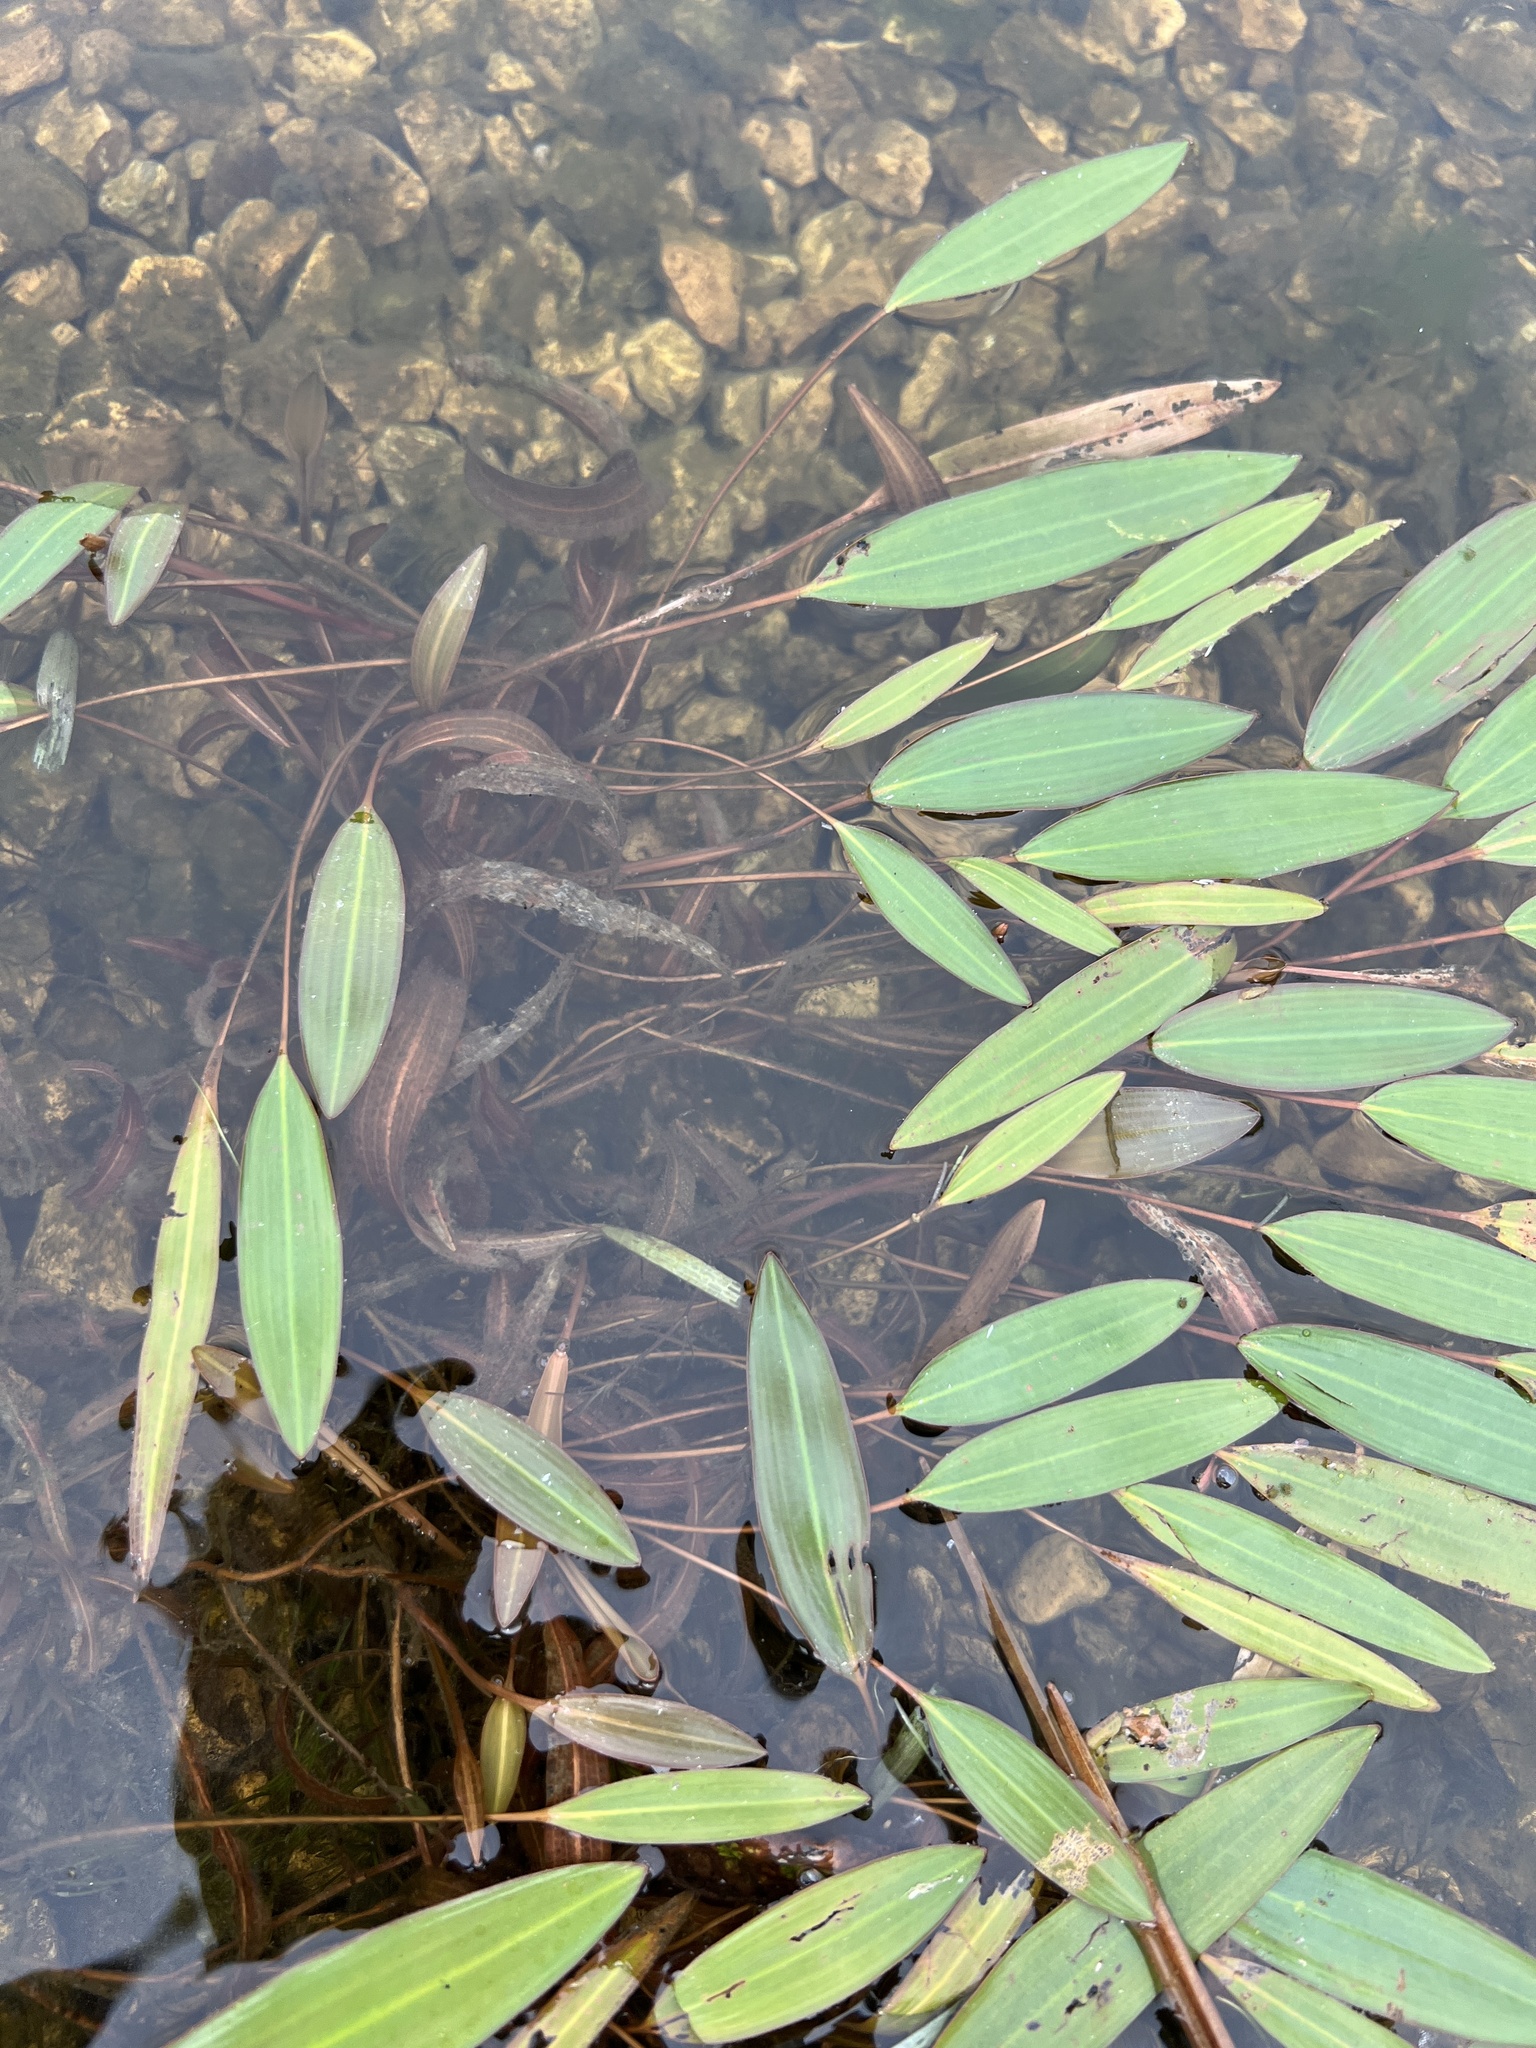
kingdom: Plantae
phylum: Tracheophyta
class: Liliopsida
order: Alismatales
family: Potamogetonaceae
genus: Potamogeton
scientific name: Potamogeton nodosus
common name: Loddon pondweed
